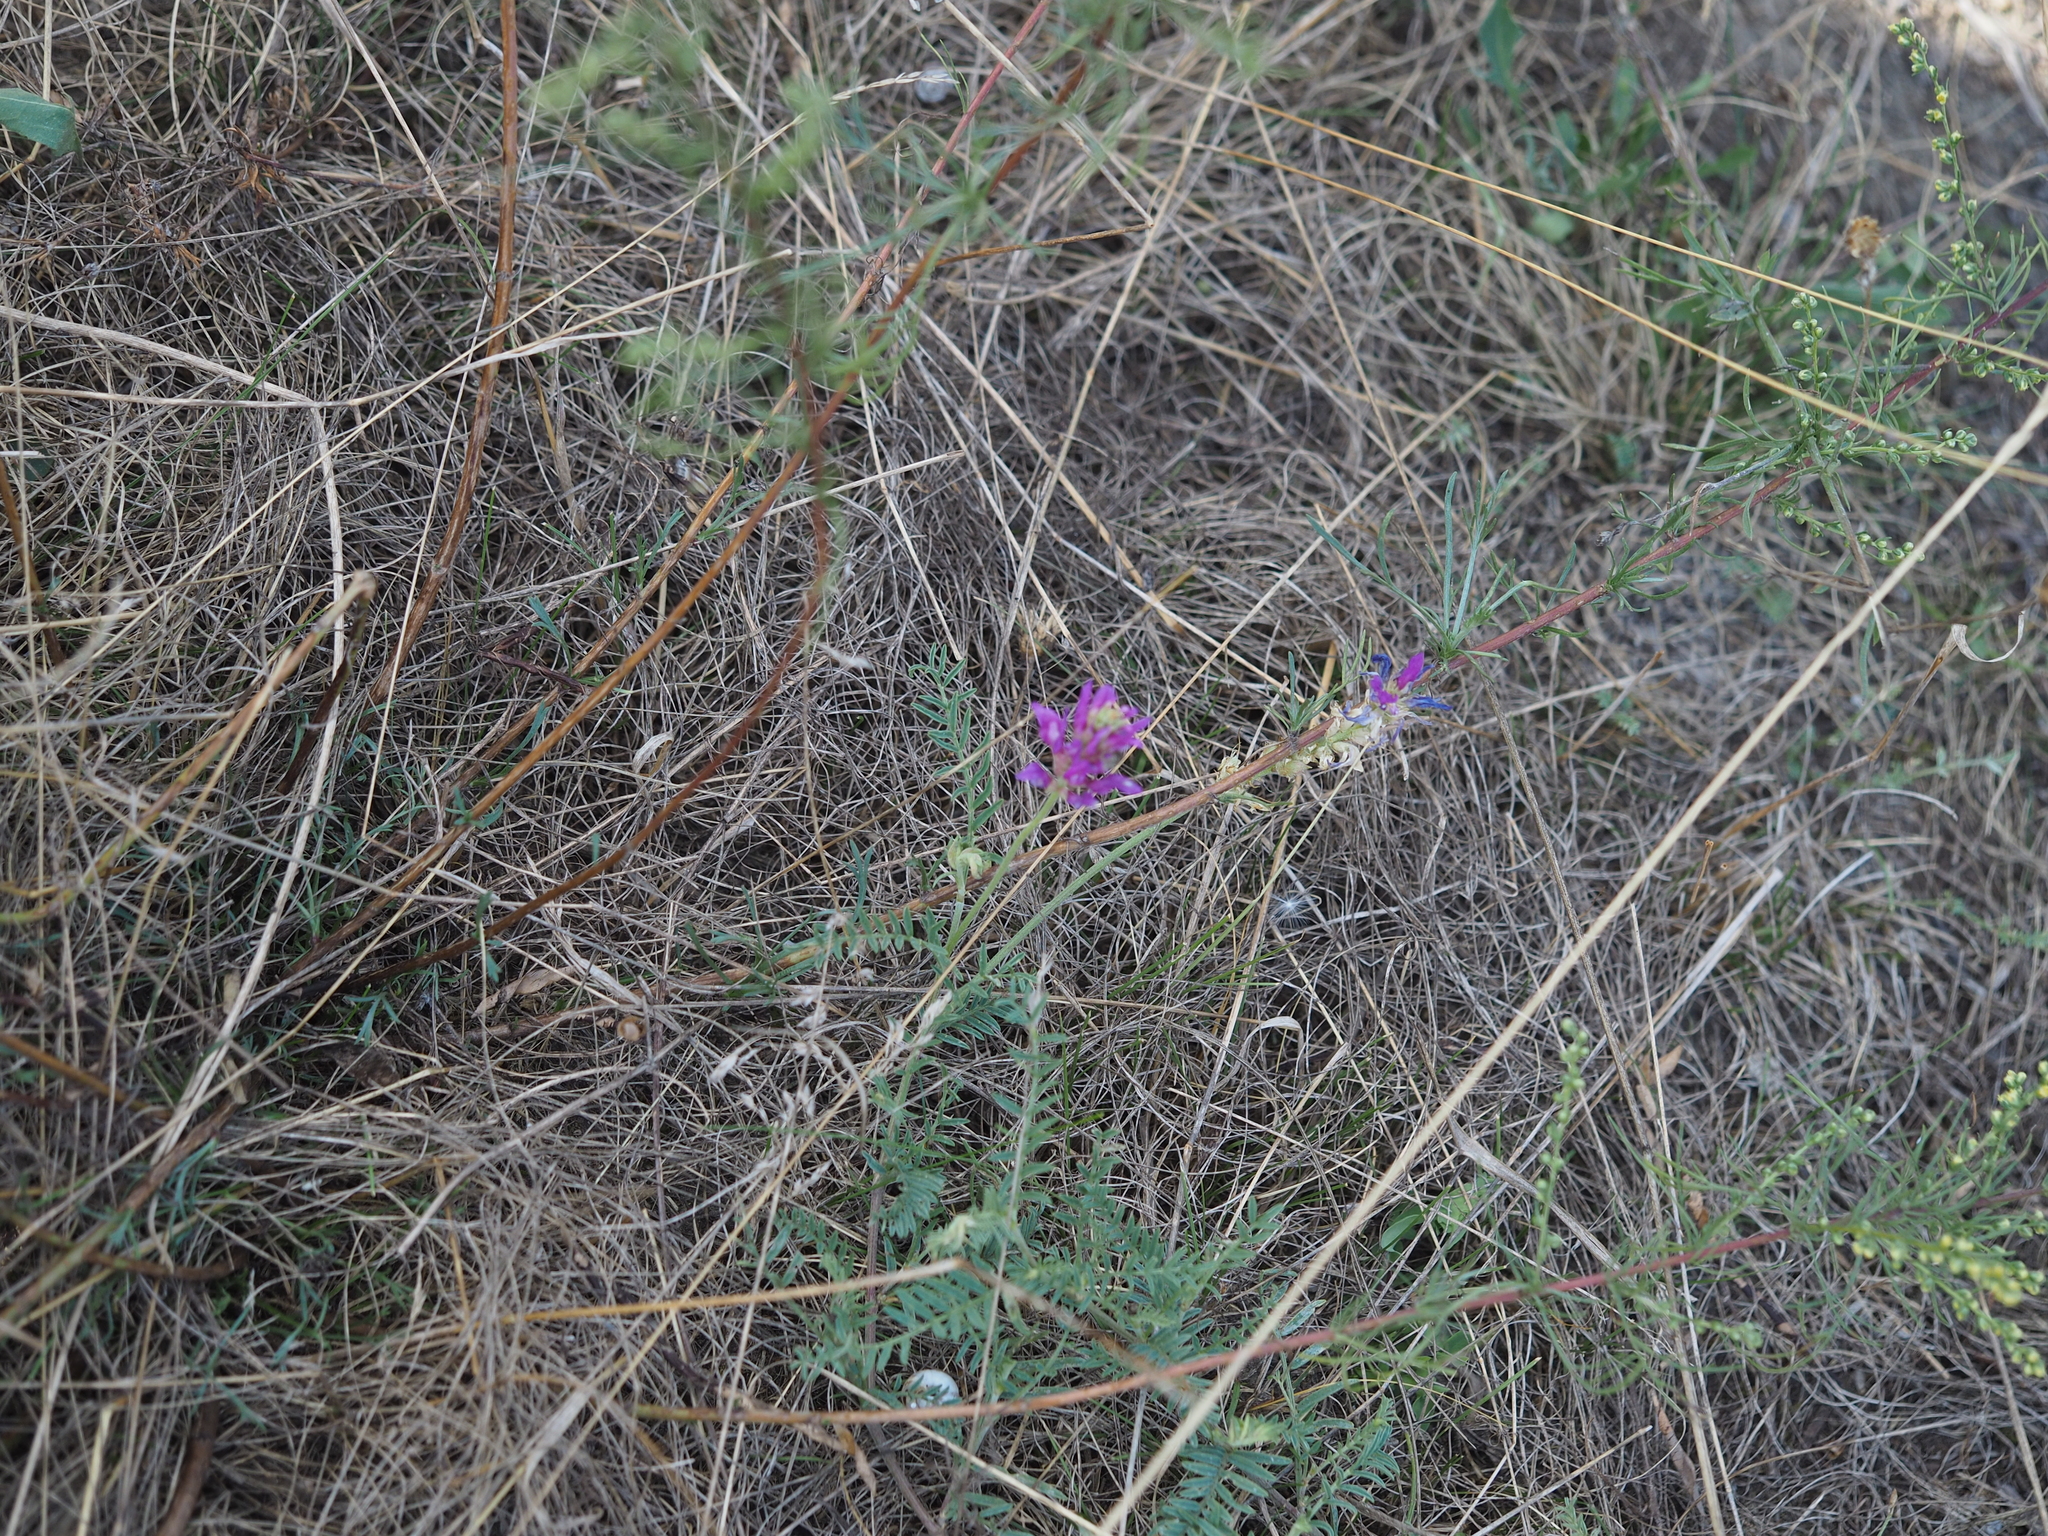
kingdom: Plantae
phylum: Tracheophyta
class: Magnoliopsida
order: Fabales
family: Fabaceae
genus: Astragalus
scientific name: Astragalus onobrychis
